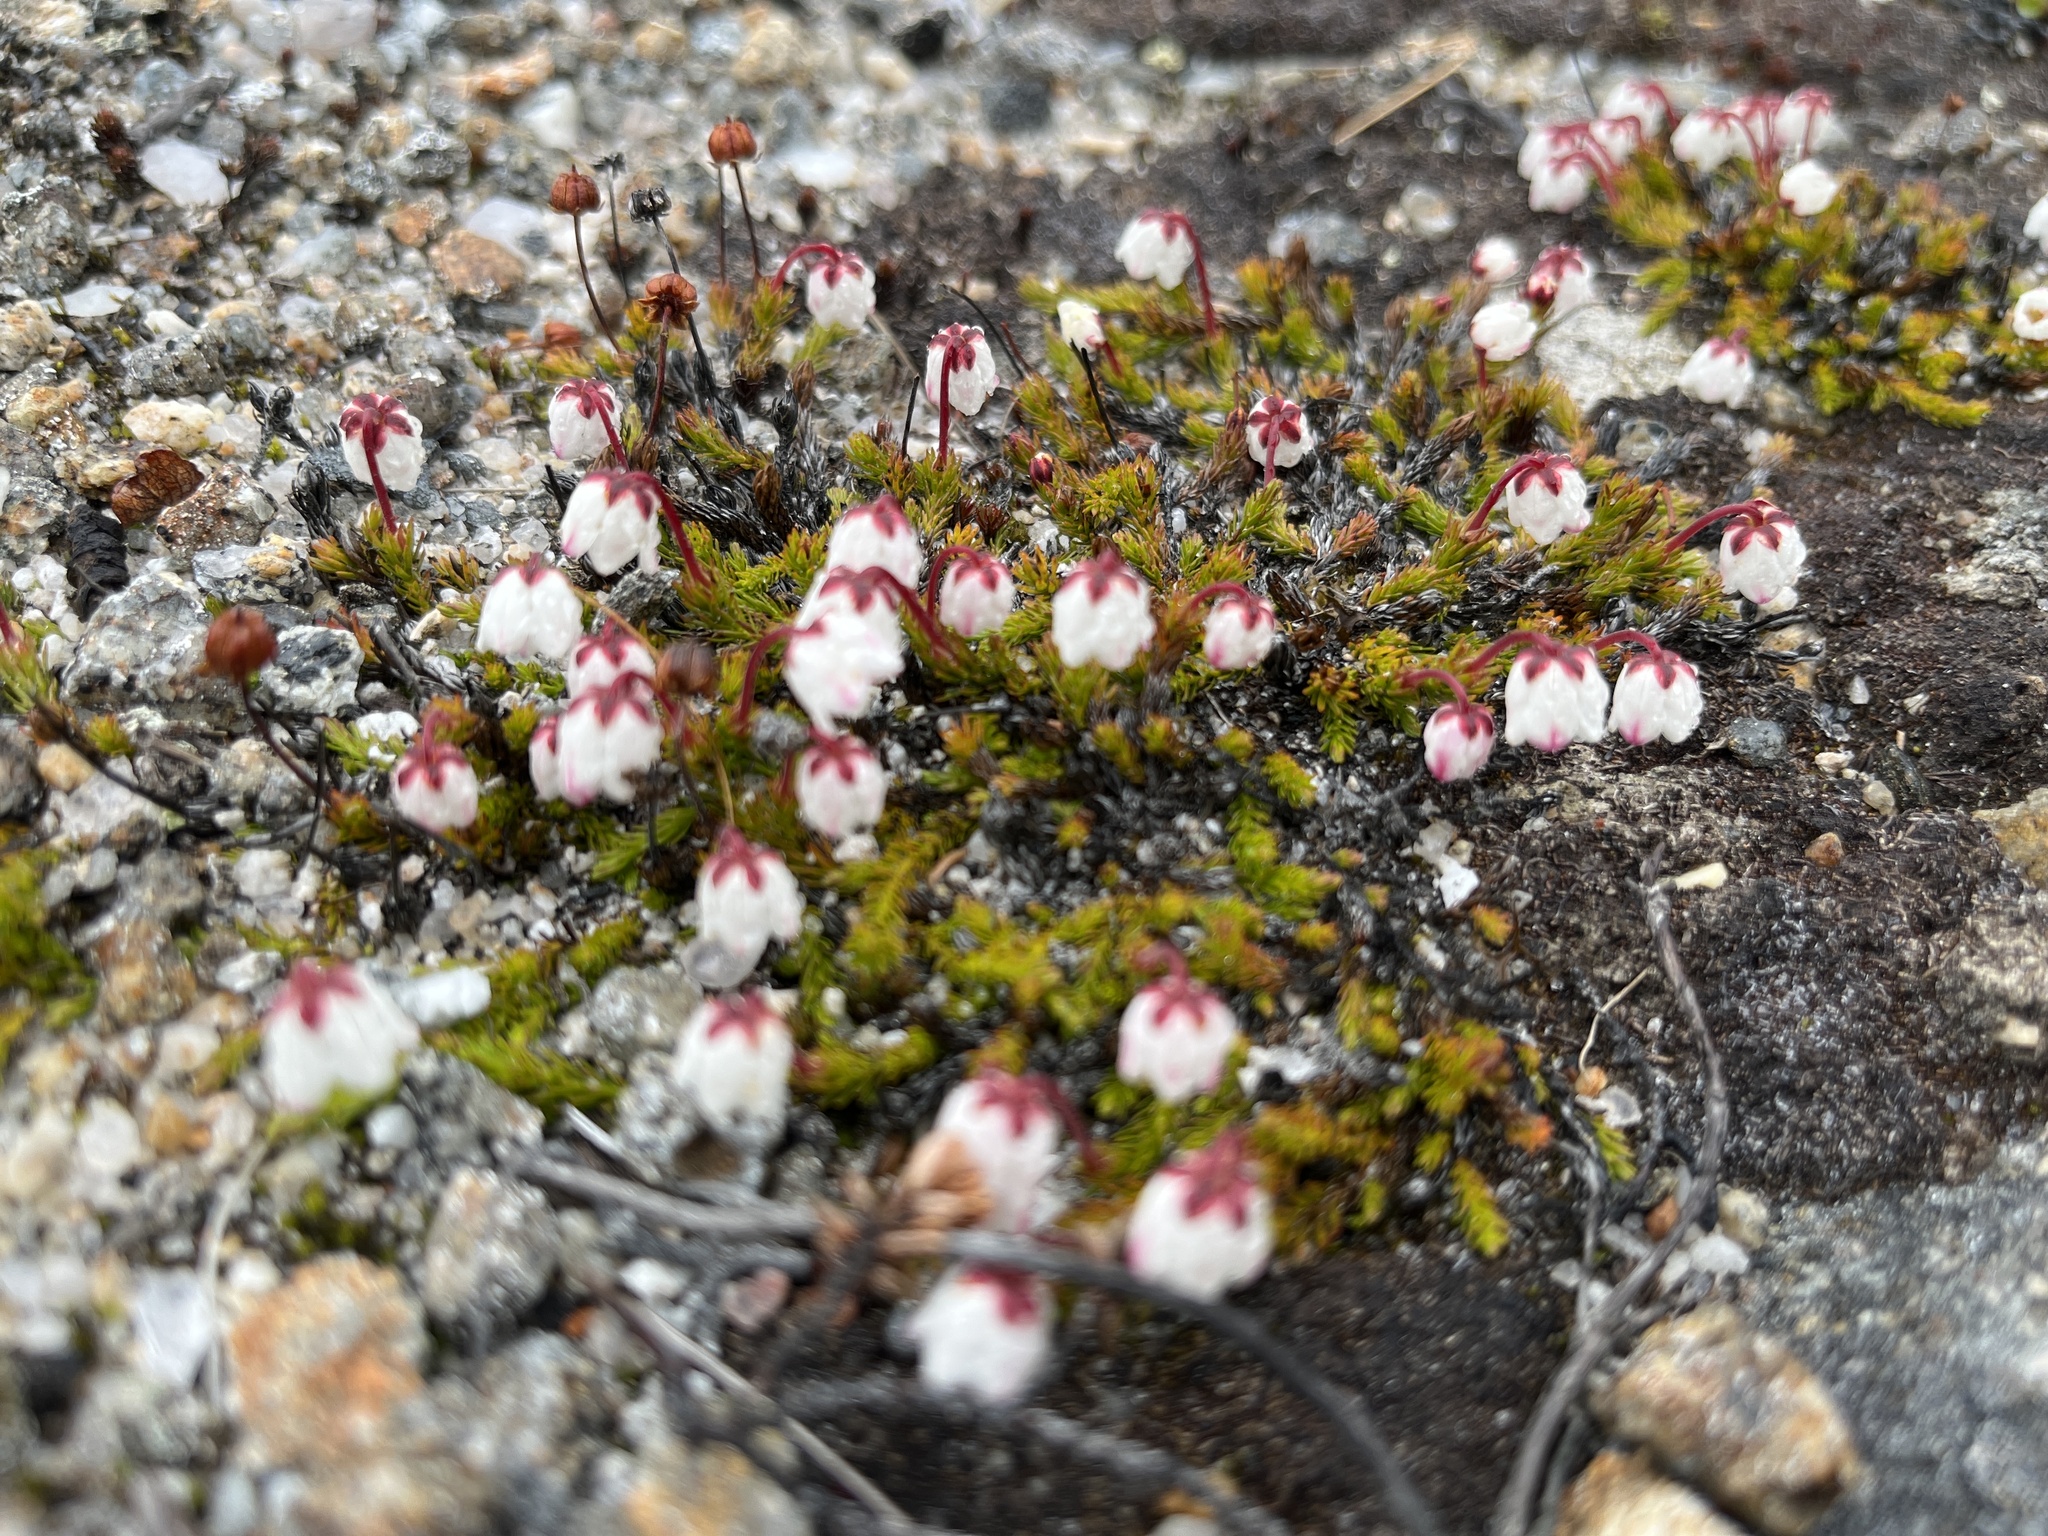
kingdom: Plantae
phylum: Tracheophyta
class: Magnoliopsida
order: Ericales
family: Ericaceae
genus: Harrimanella
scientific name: Harrimanella hypnoides
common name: Moss bell heather
